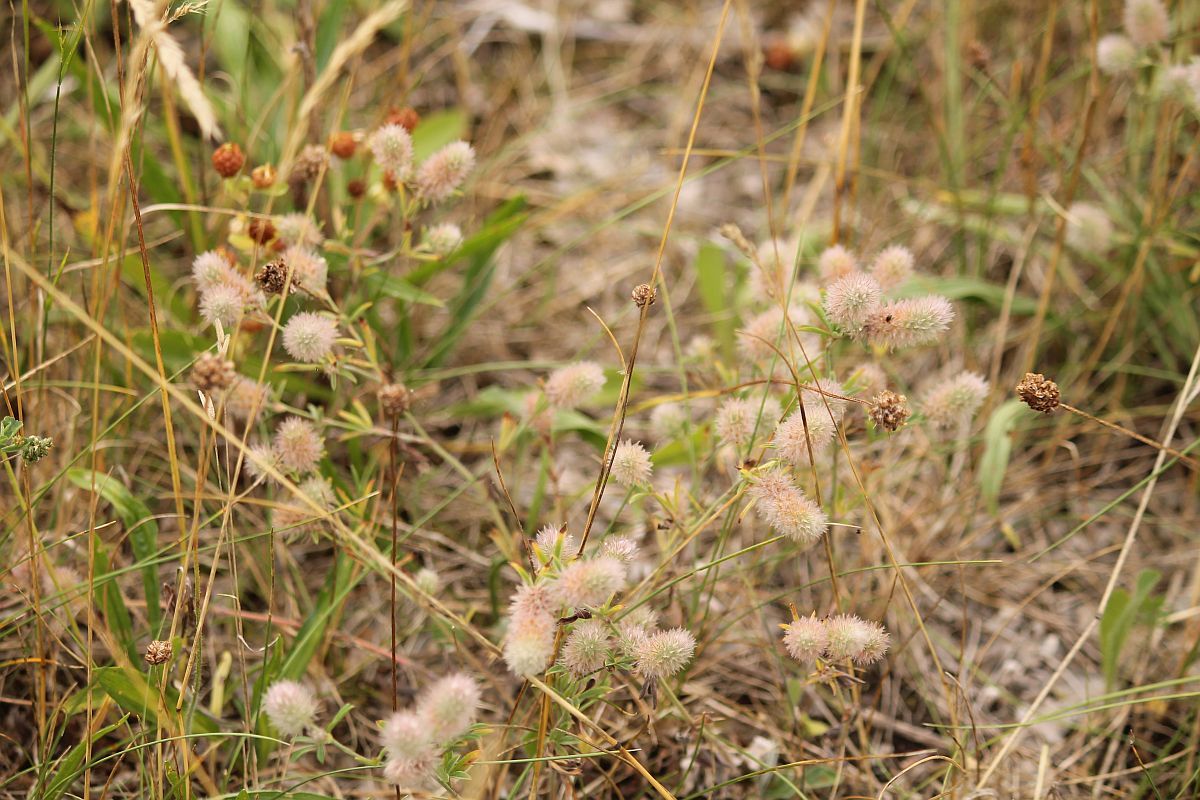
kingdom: Plantae
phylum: Tracheophyta
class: Magnoliopsida
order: Fabales
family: Fabaceae
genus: Trifolium
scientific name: Trifolium arvense
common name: Hare's-foot clover
